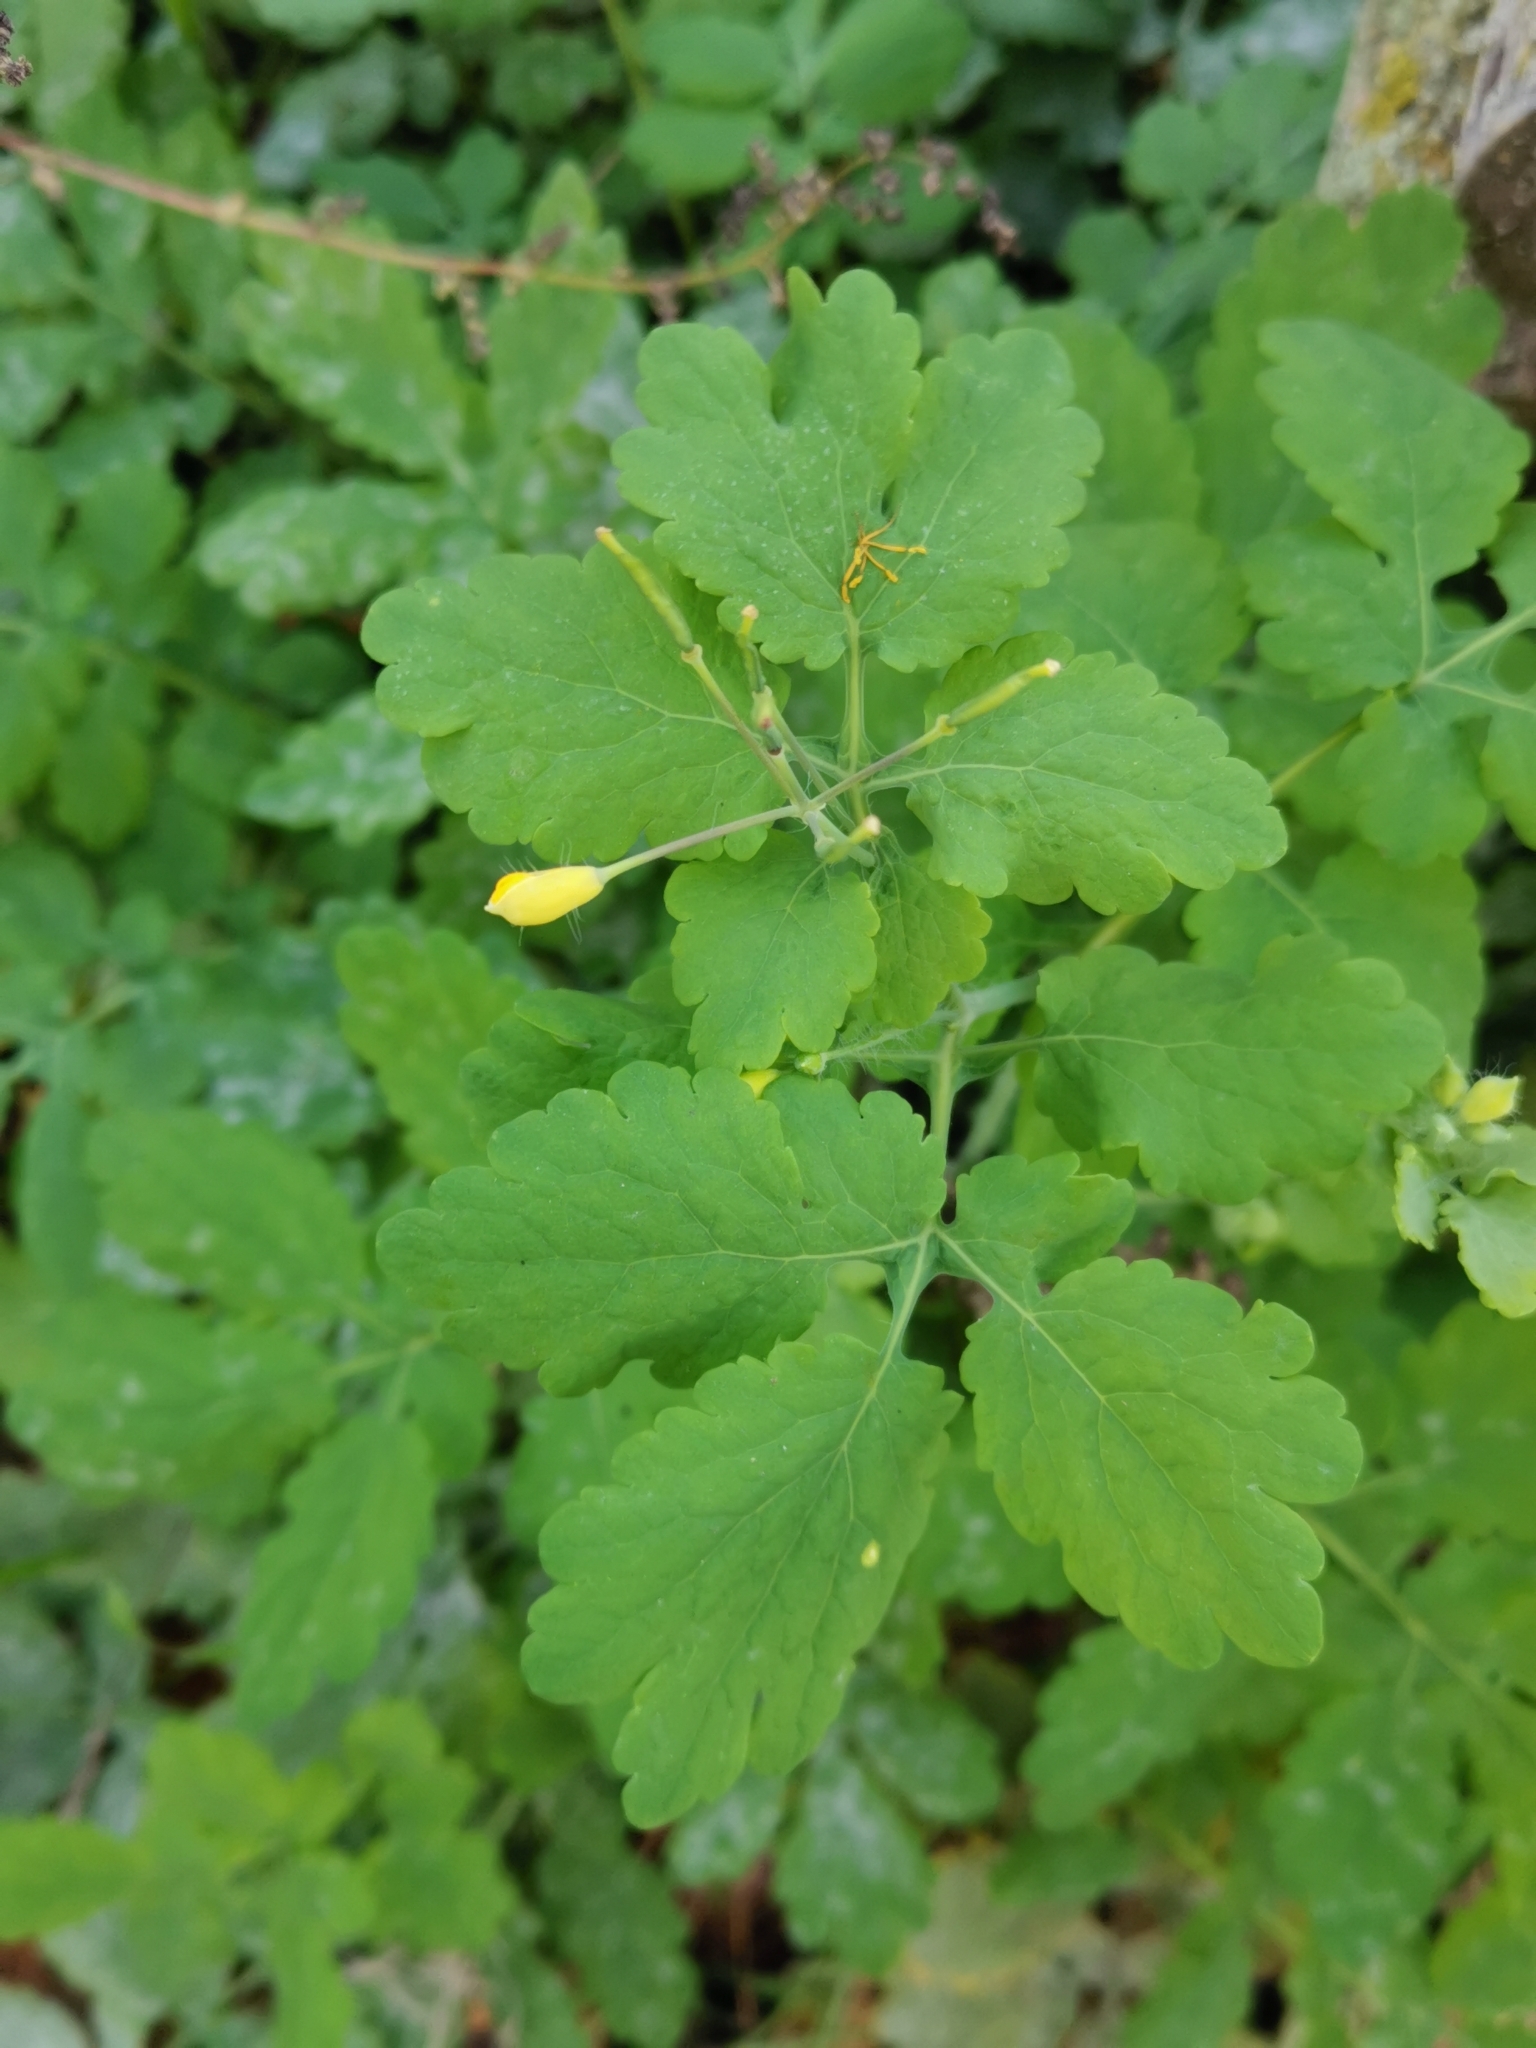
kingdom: Plantae
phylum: Tracheophyta
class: Magnoliopsida
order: Ranunculales
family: Papaveraceae
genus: Chelidonium
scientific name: Chelidonium majus
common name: Greater celandine
